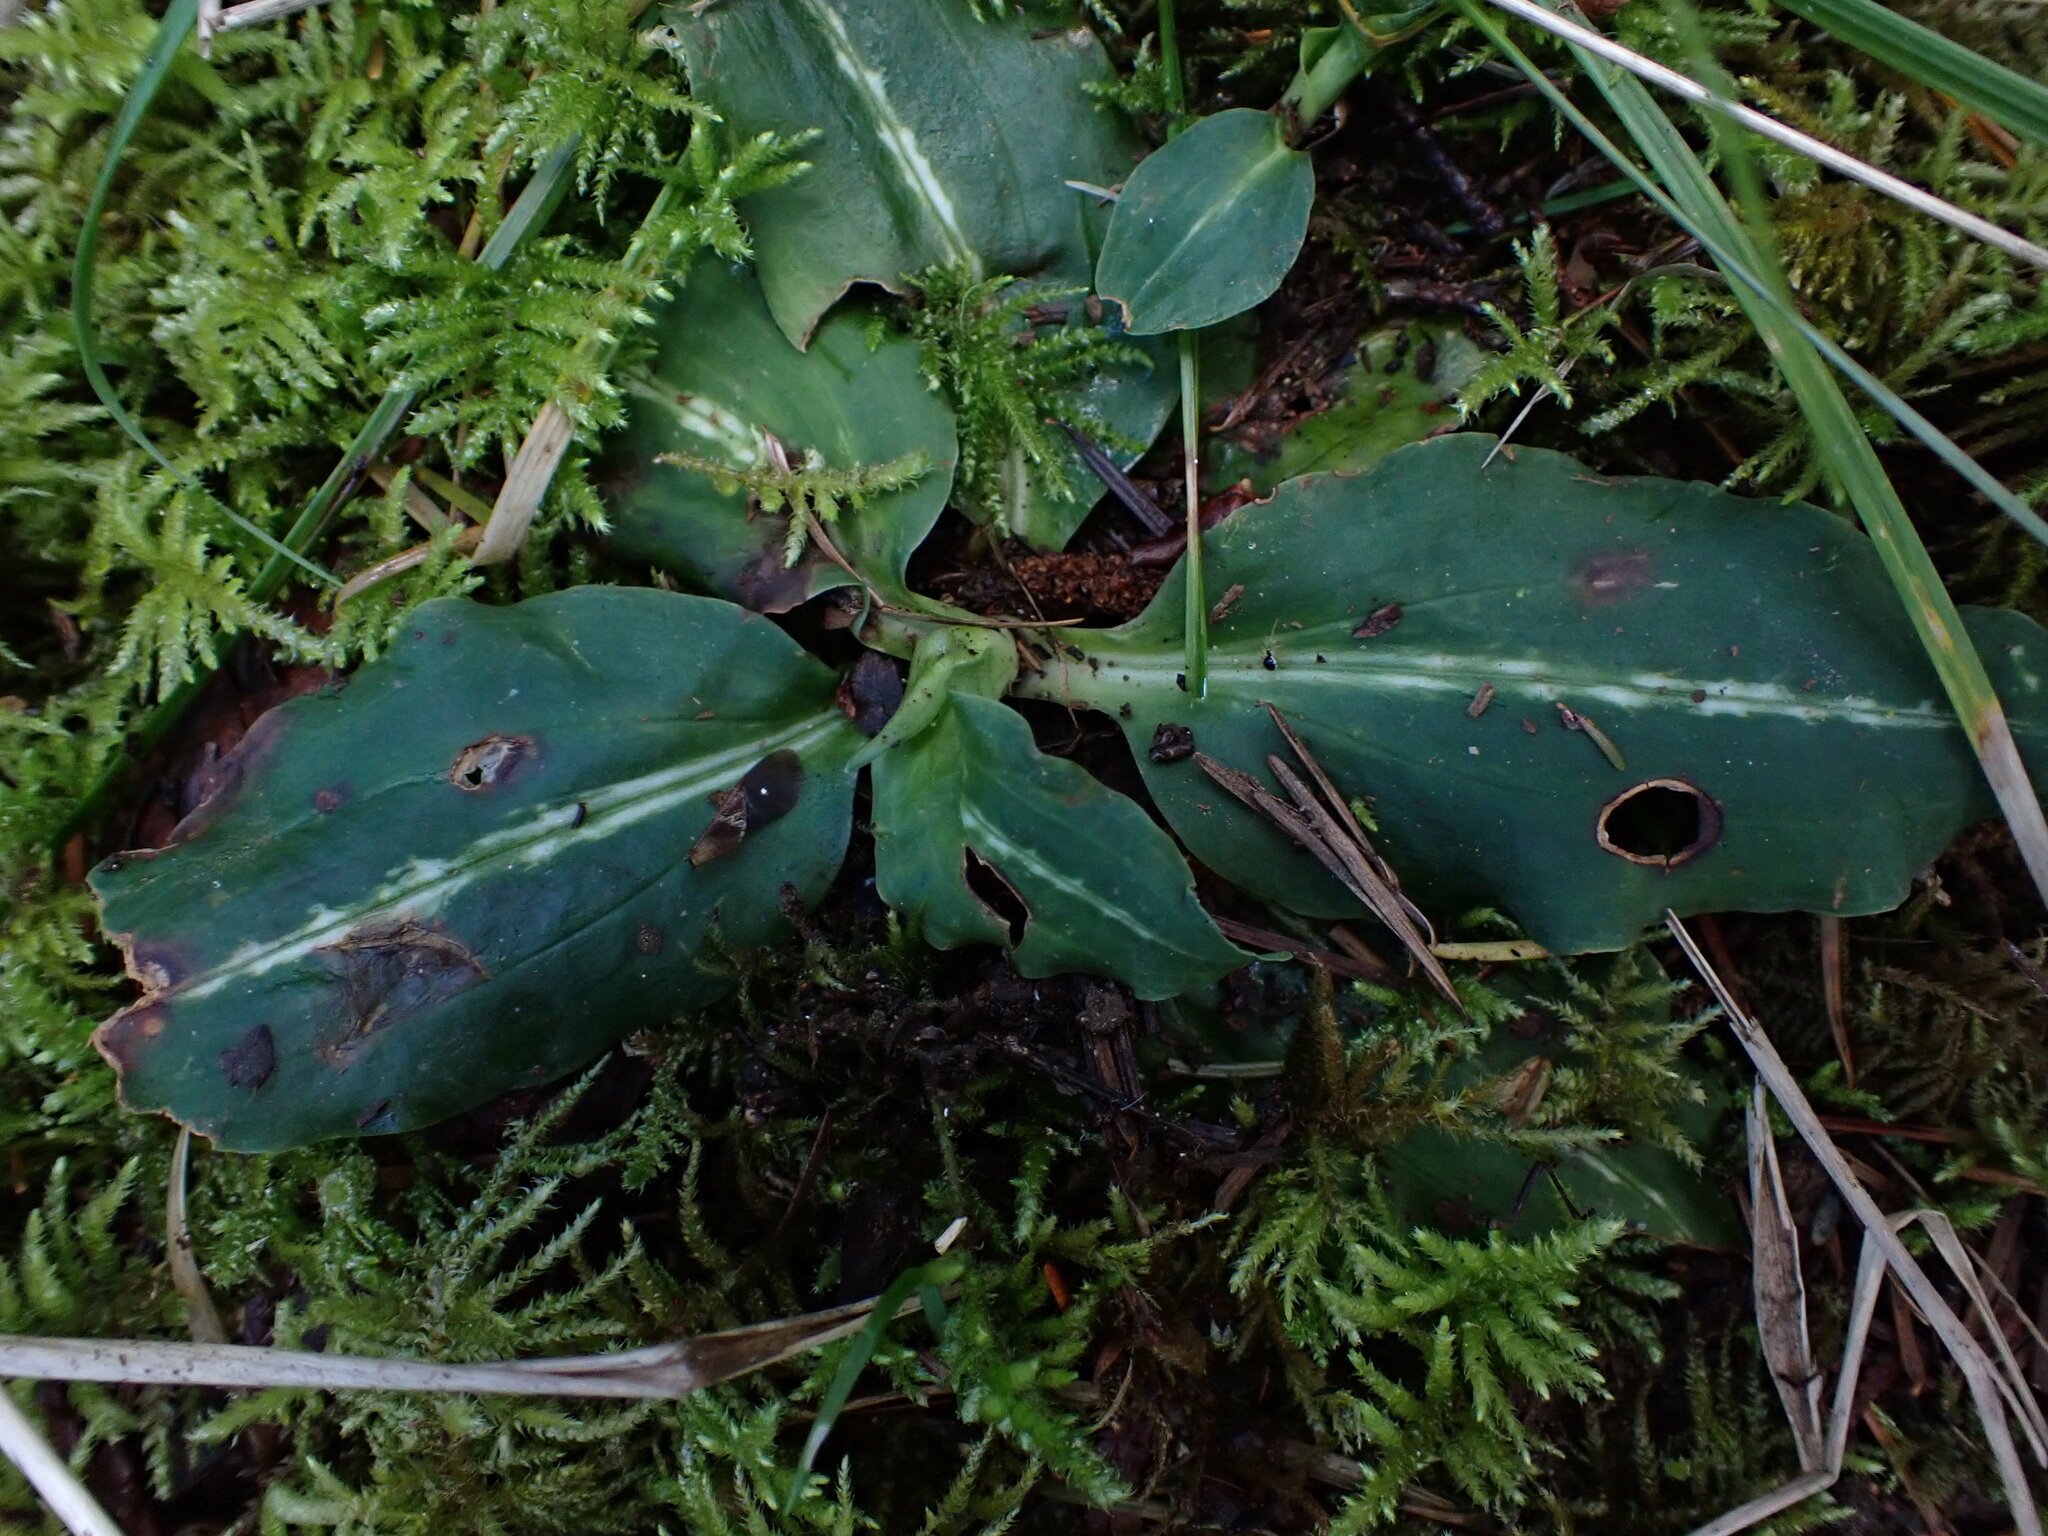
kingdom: Plantae
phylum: Tracheophyta
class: Liliopsida
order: Asparagales
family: Orchidaceae
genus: Goodyera
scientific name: Goodyera oblongifolia
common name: Giant rattlesnake-plantain
